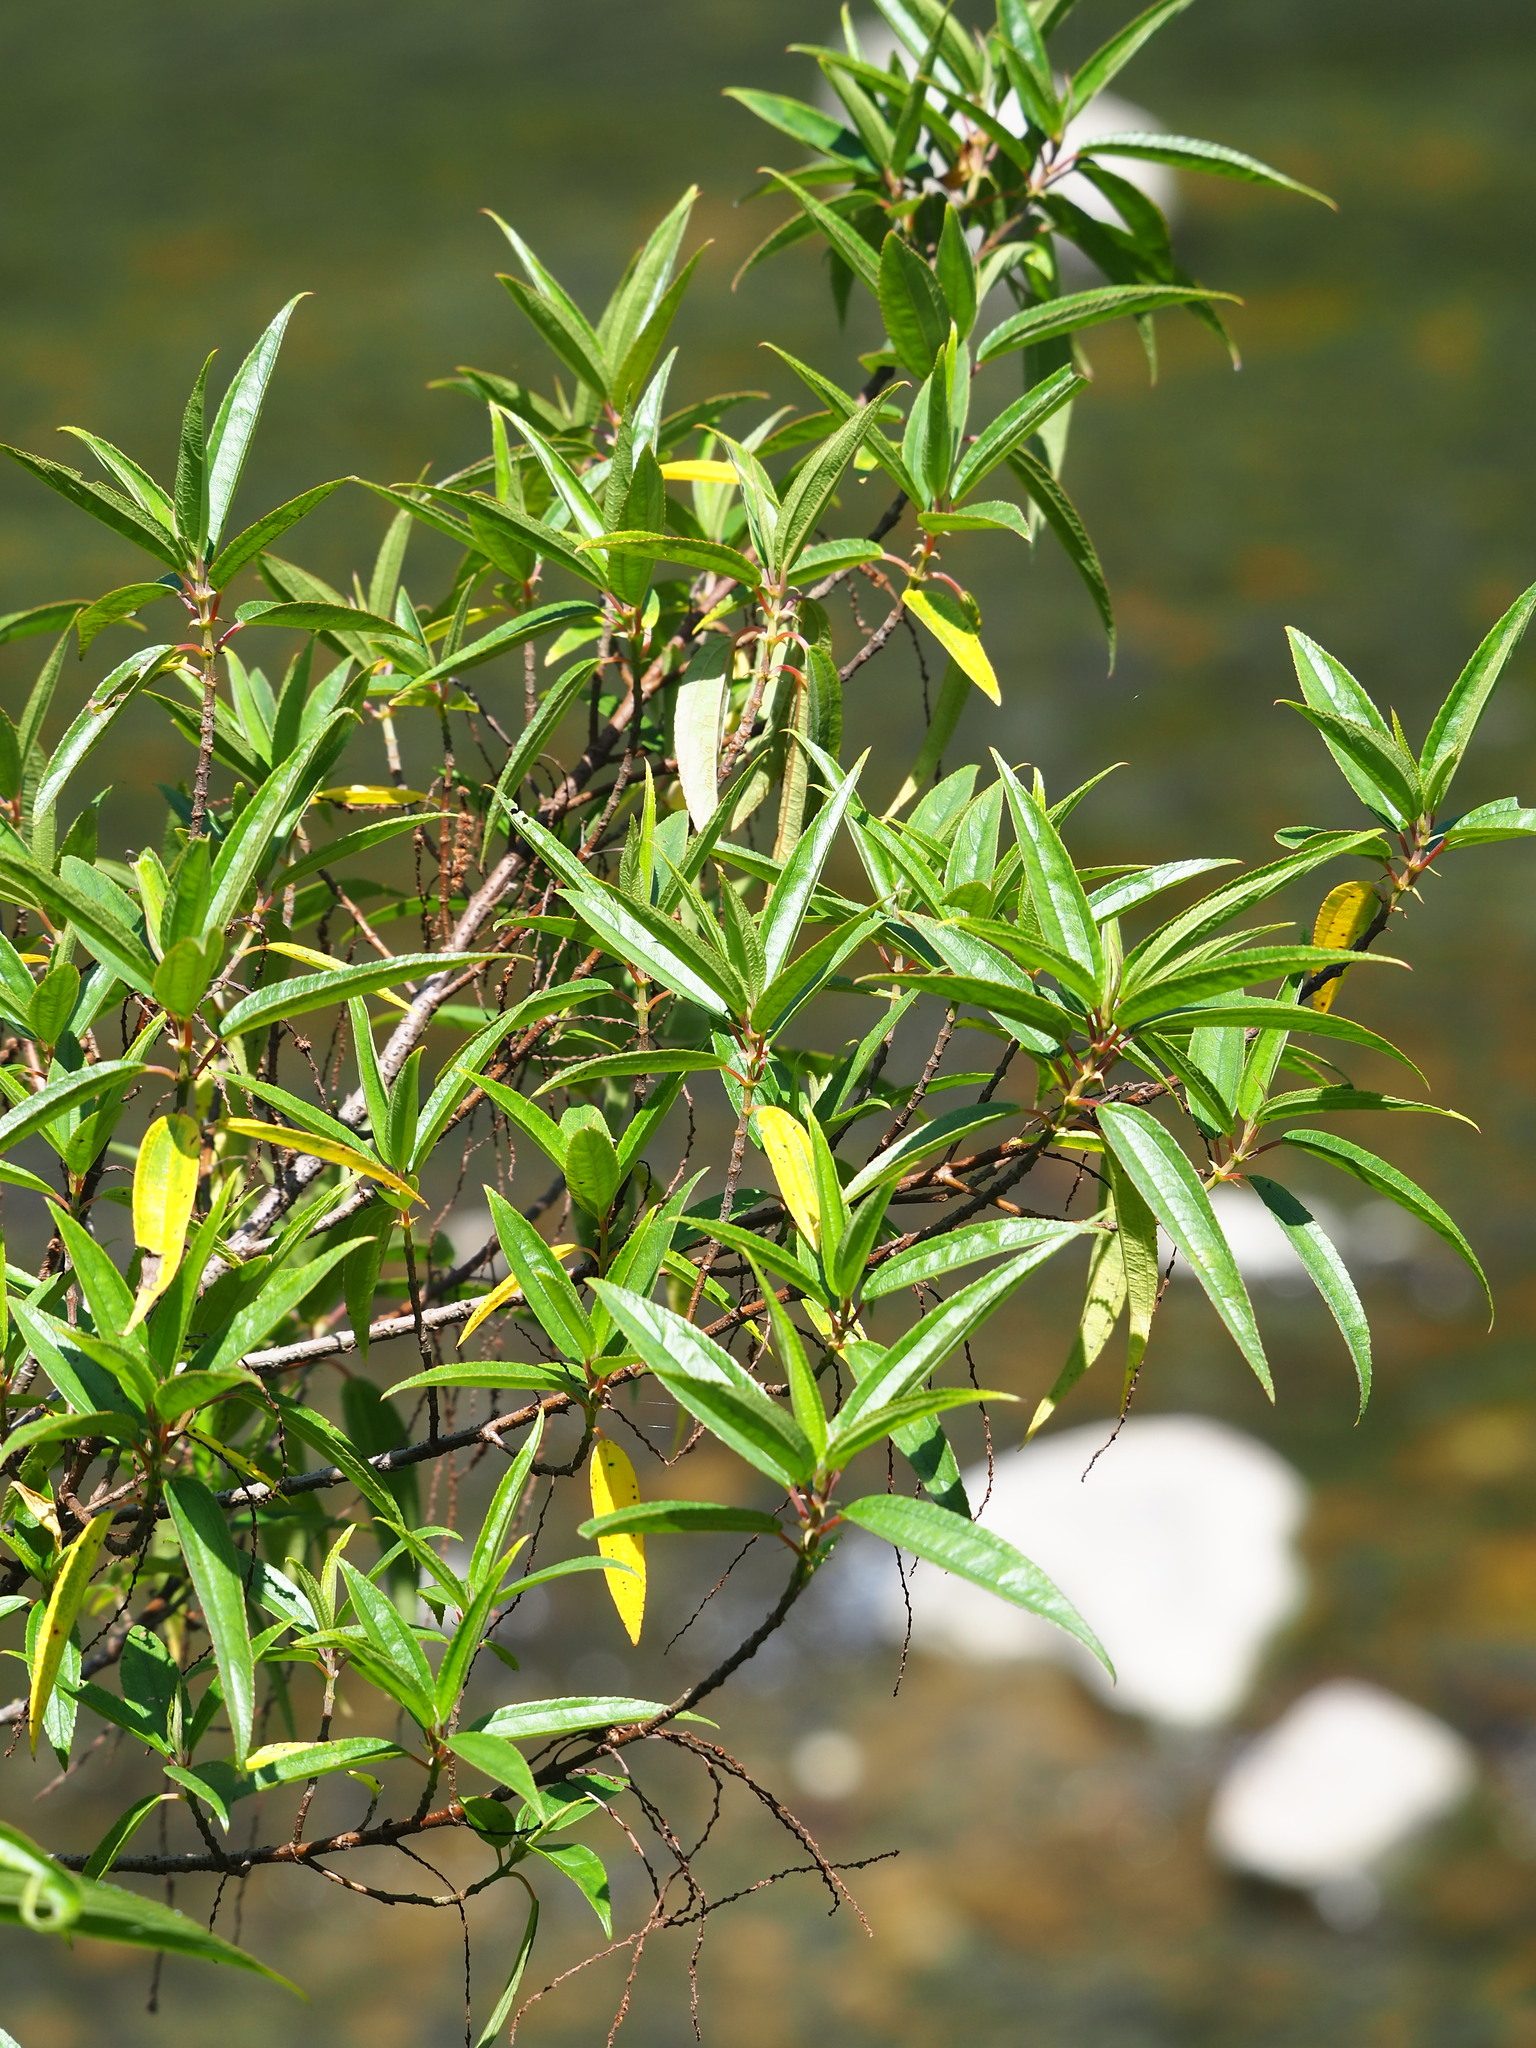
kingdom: Plantae
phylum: Tracheophyta
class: Magnoliopsida
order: Rosales
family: Urticaceae
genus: Boehmeria
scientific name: Boehmeria densiflora
